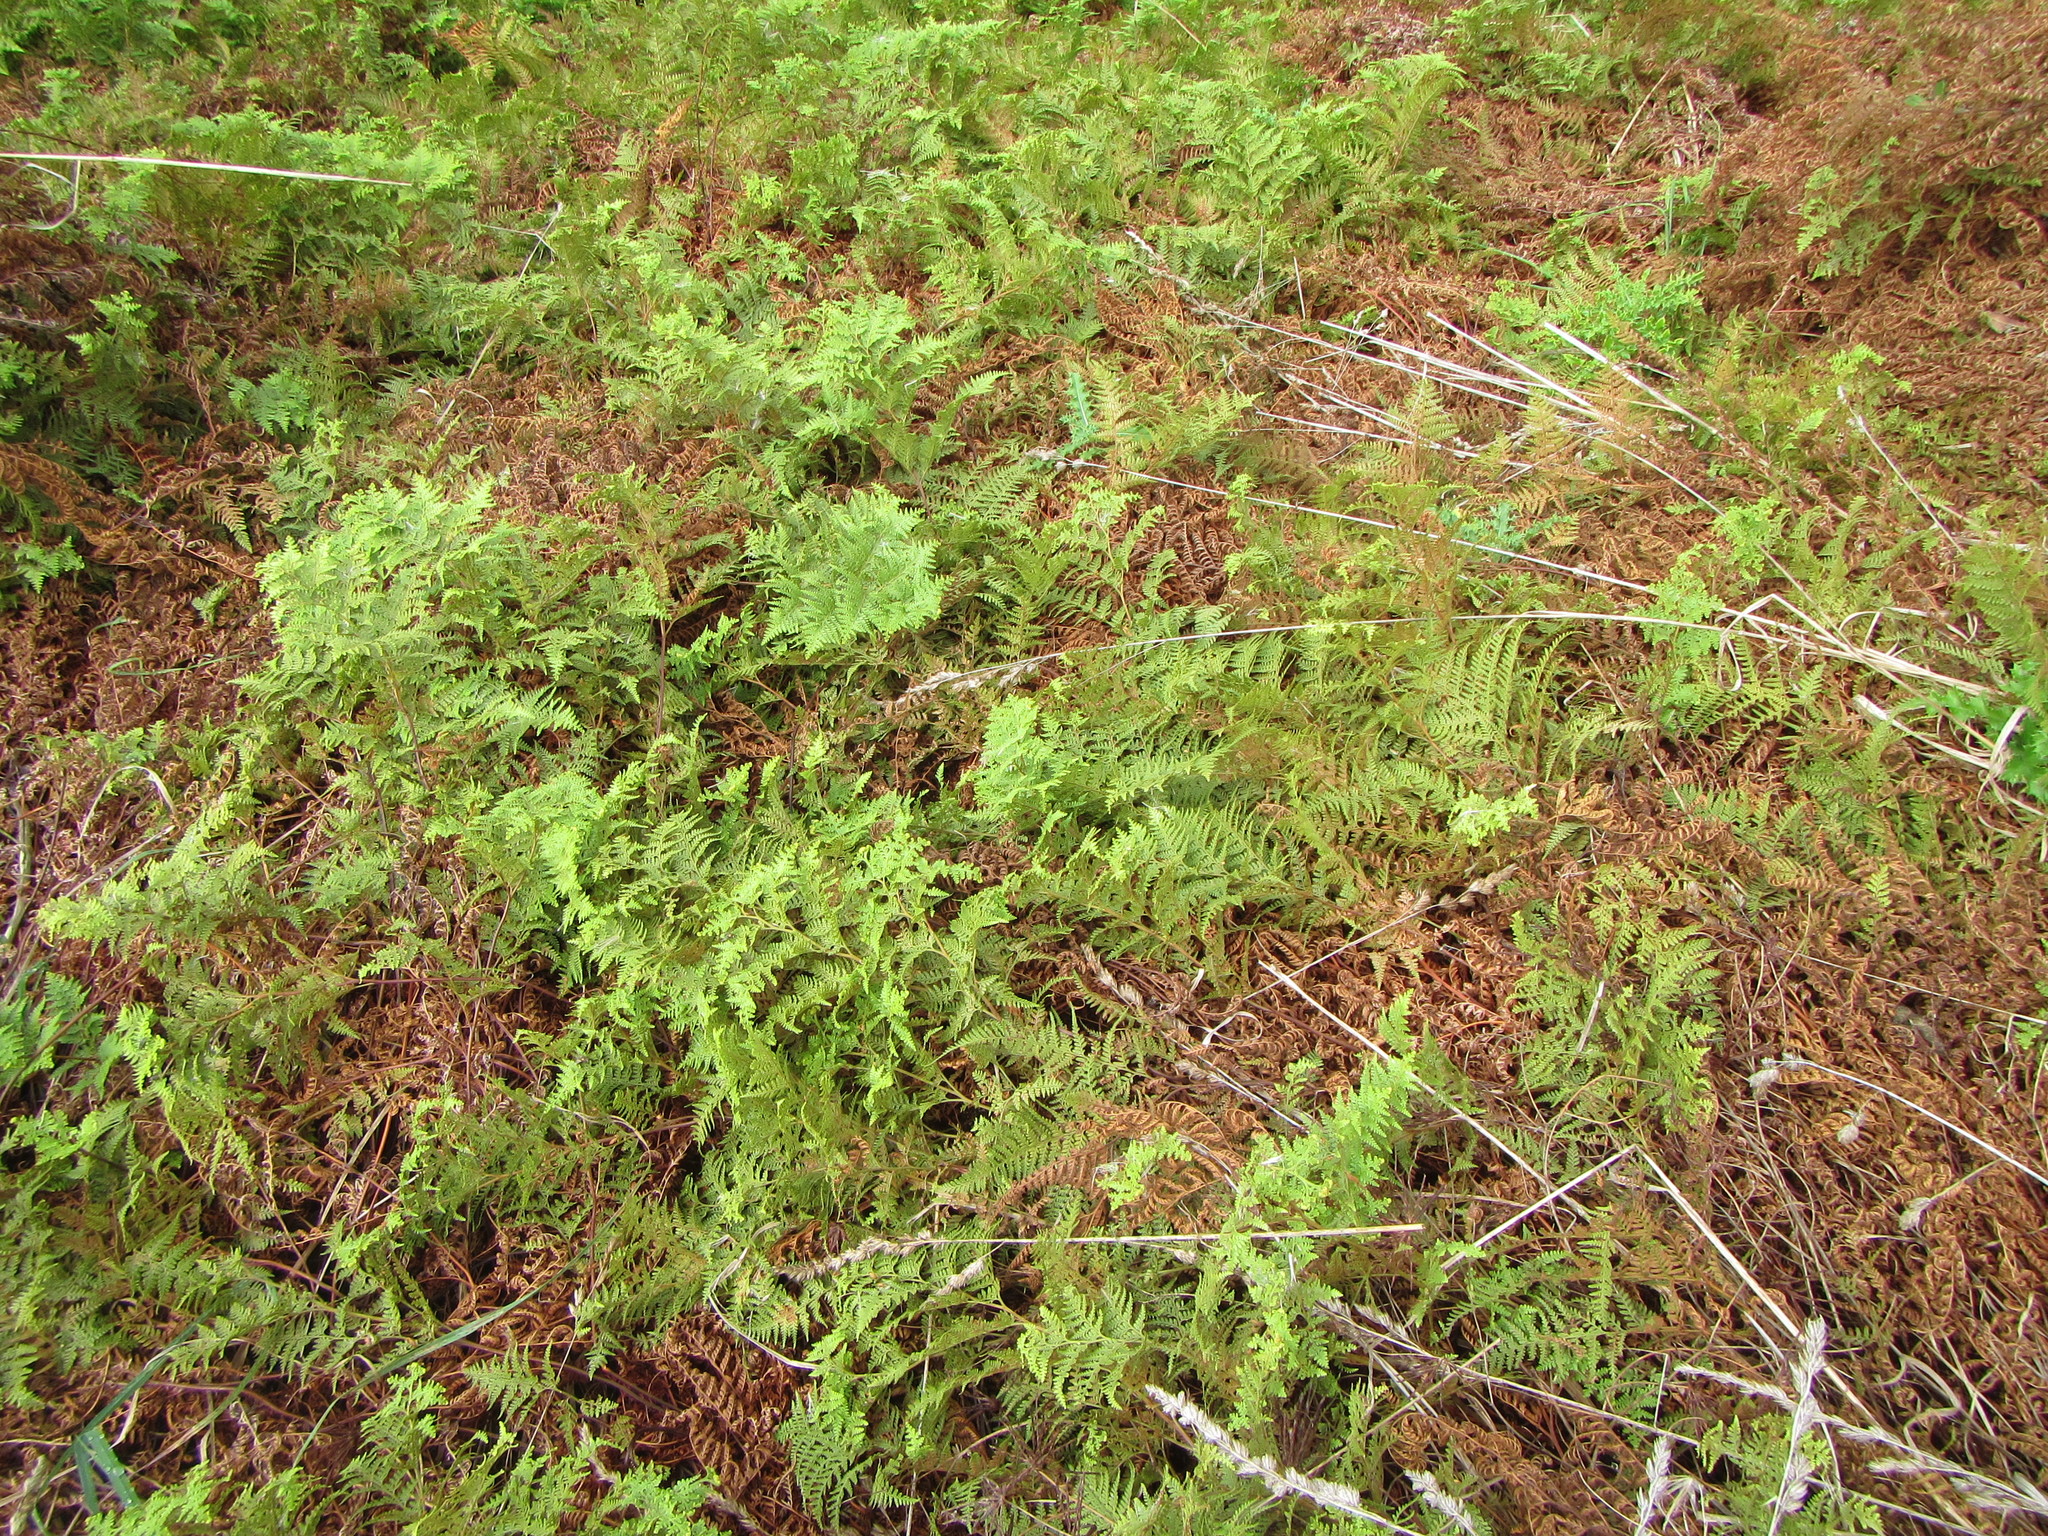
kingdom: Plantae
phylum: Tracheophyta
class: Polypodiopsida
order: Polypodiales
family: Dennstaedtiaceae
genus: Paesia
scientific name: Paesia scaberula
